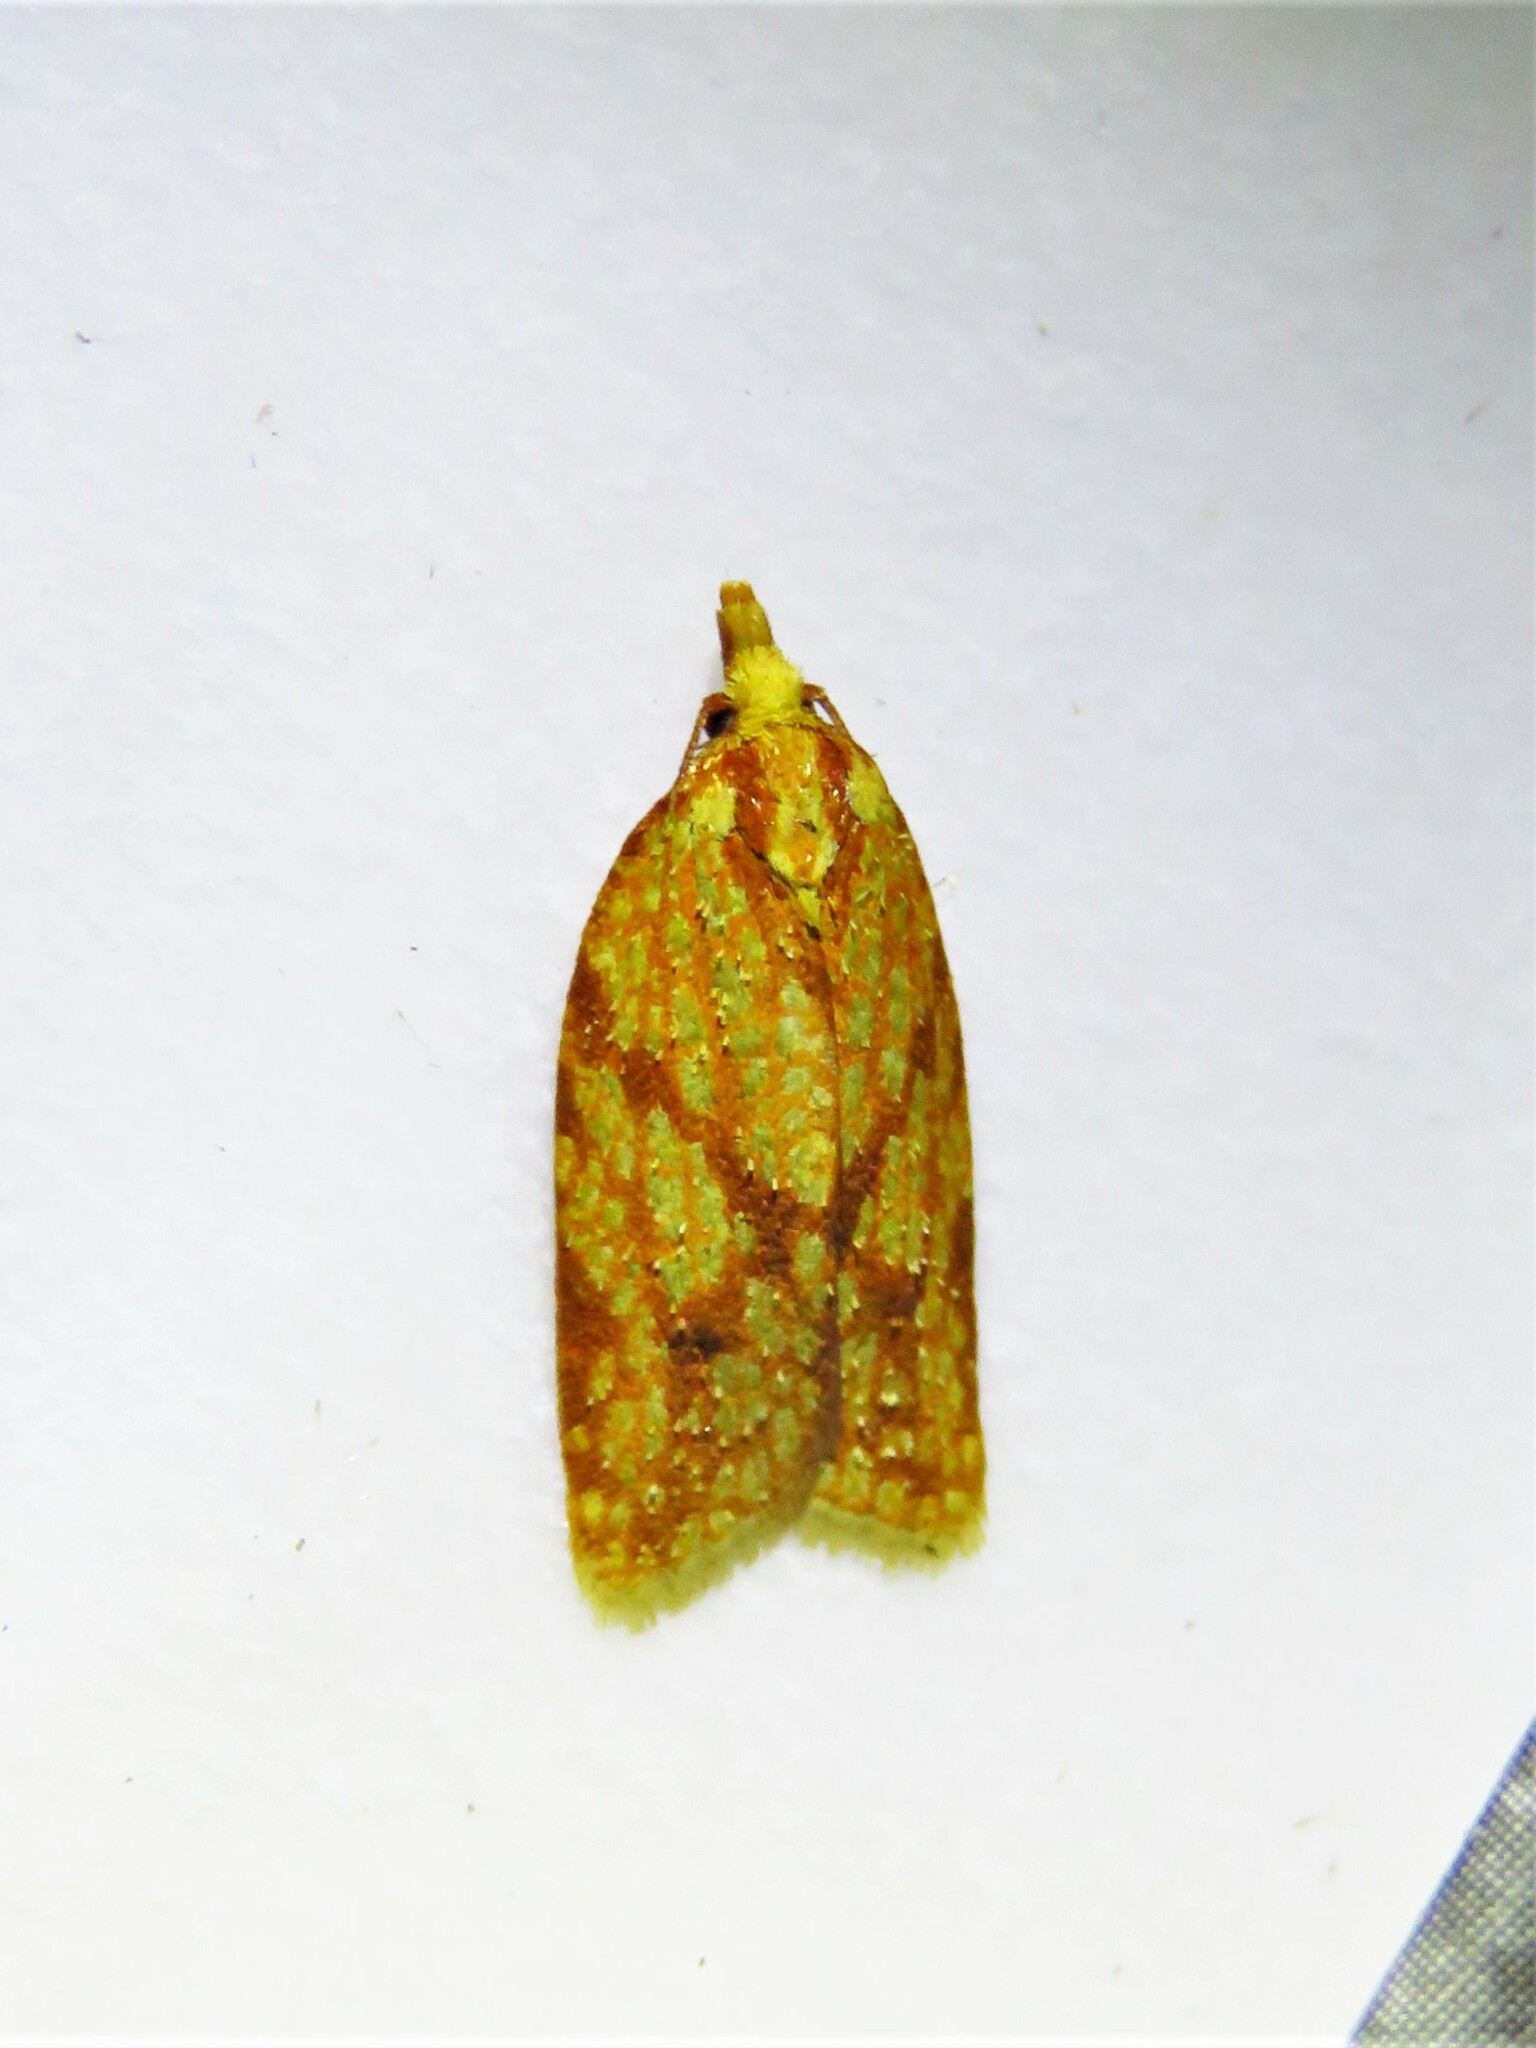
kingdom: Animalia
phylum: Arthropoda
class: Insecta
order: Lepidoptera
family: Tortricidae
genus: Sparganothis
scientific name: Sparganothis sulfureana
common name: Sparganothis fruitworm moth
